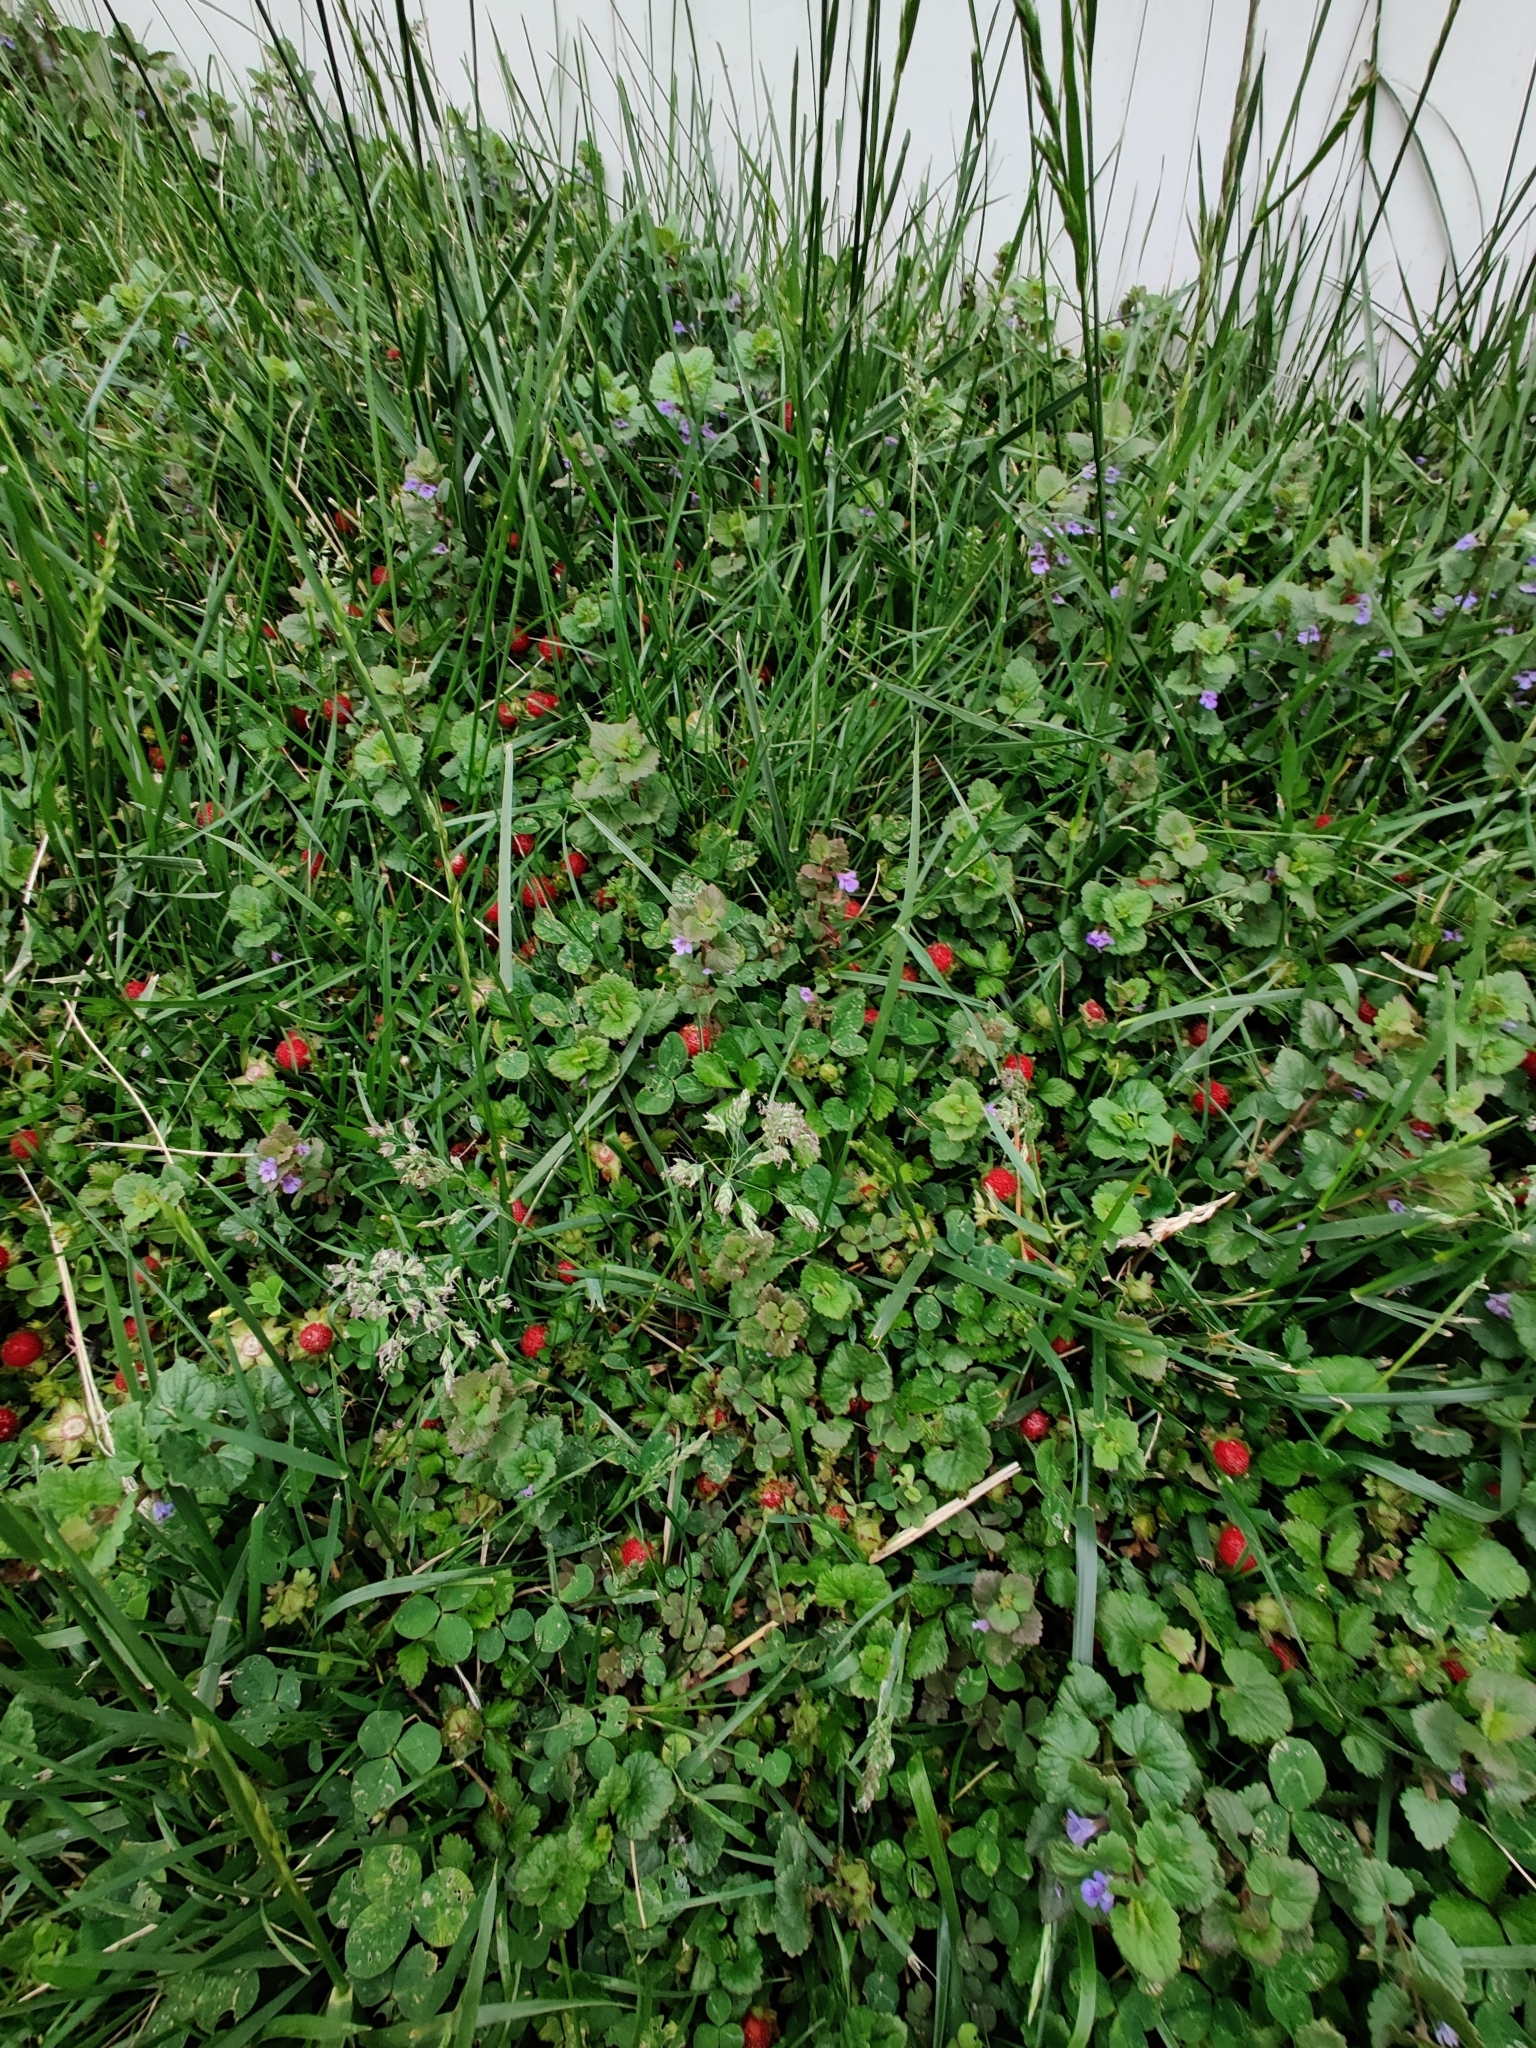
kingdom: Plantae
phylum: Tracheophyta
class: Magnoliopsida
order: Rosales
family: Rosaceae
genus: Potentilla
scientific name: Potentilla indica
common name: Yellow-flowered strawberry
